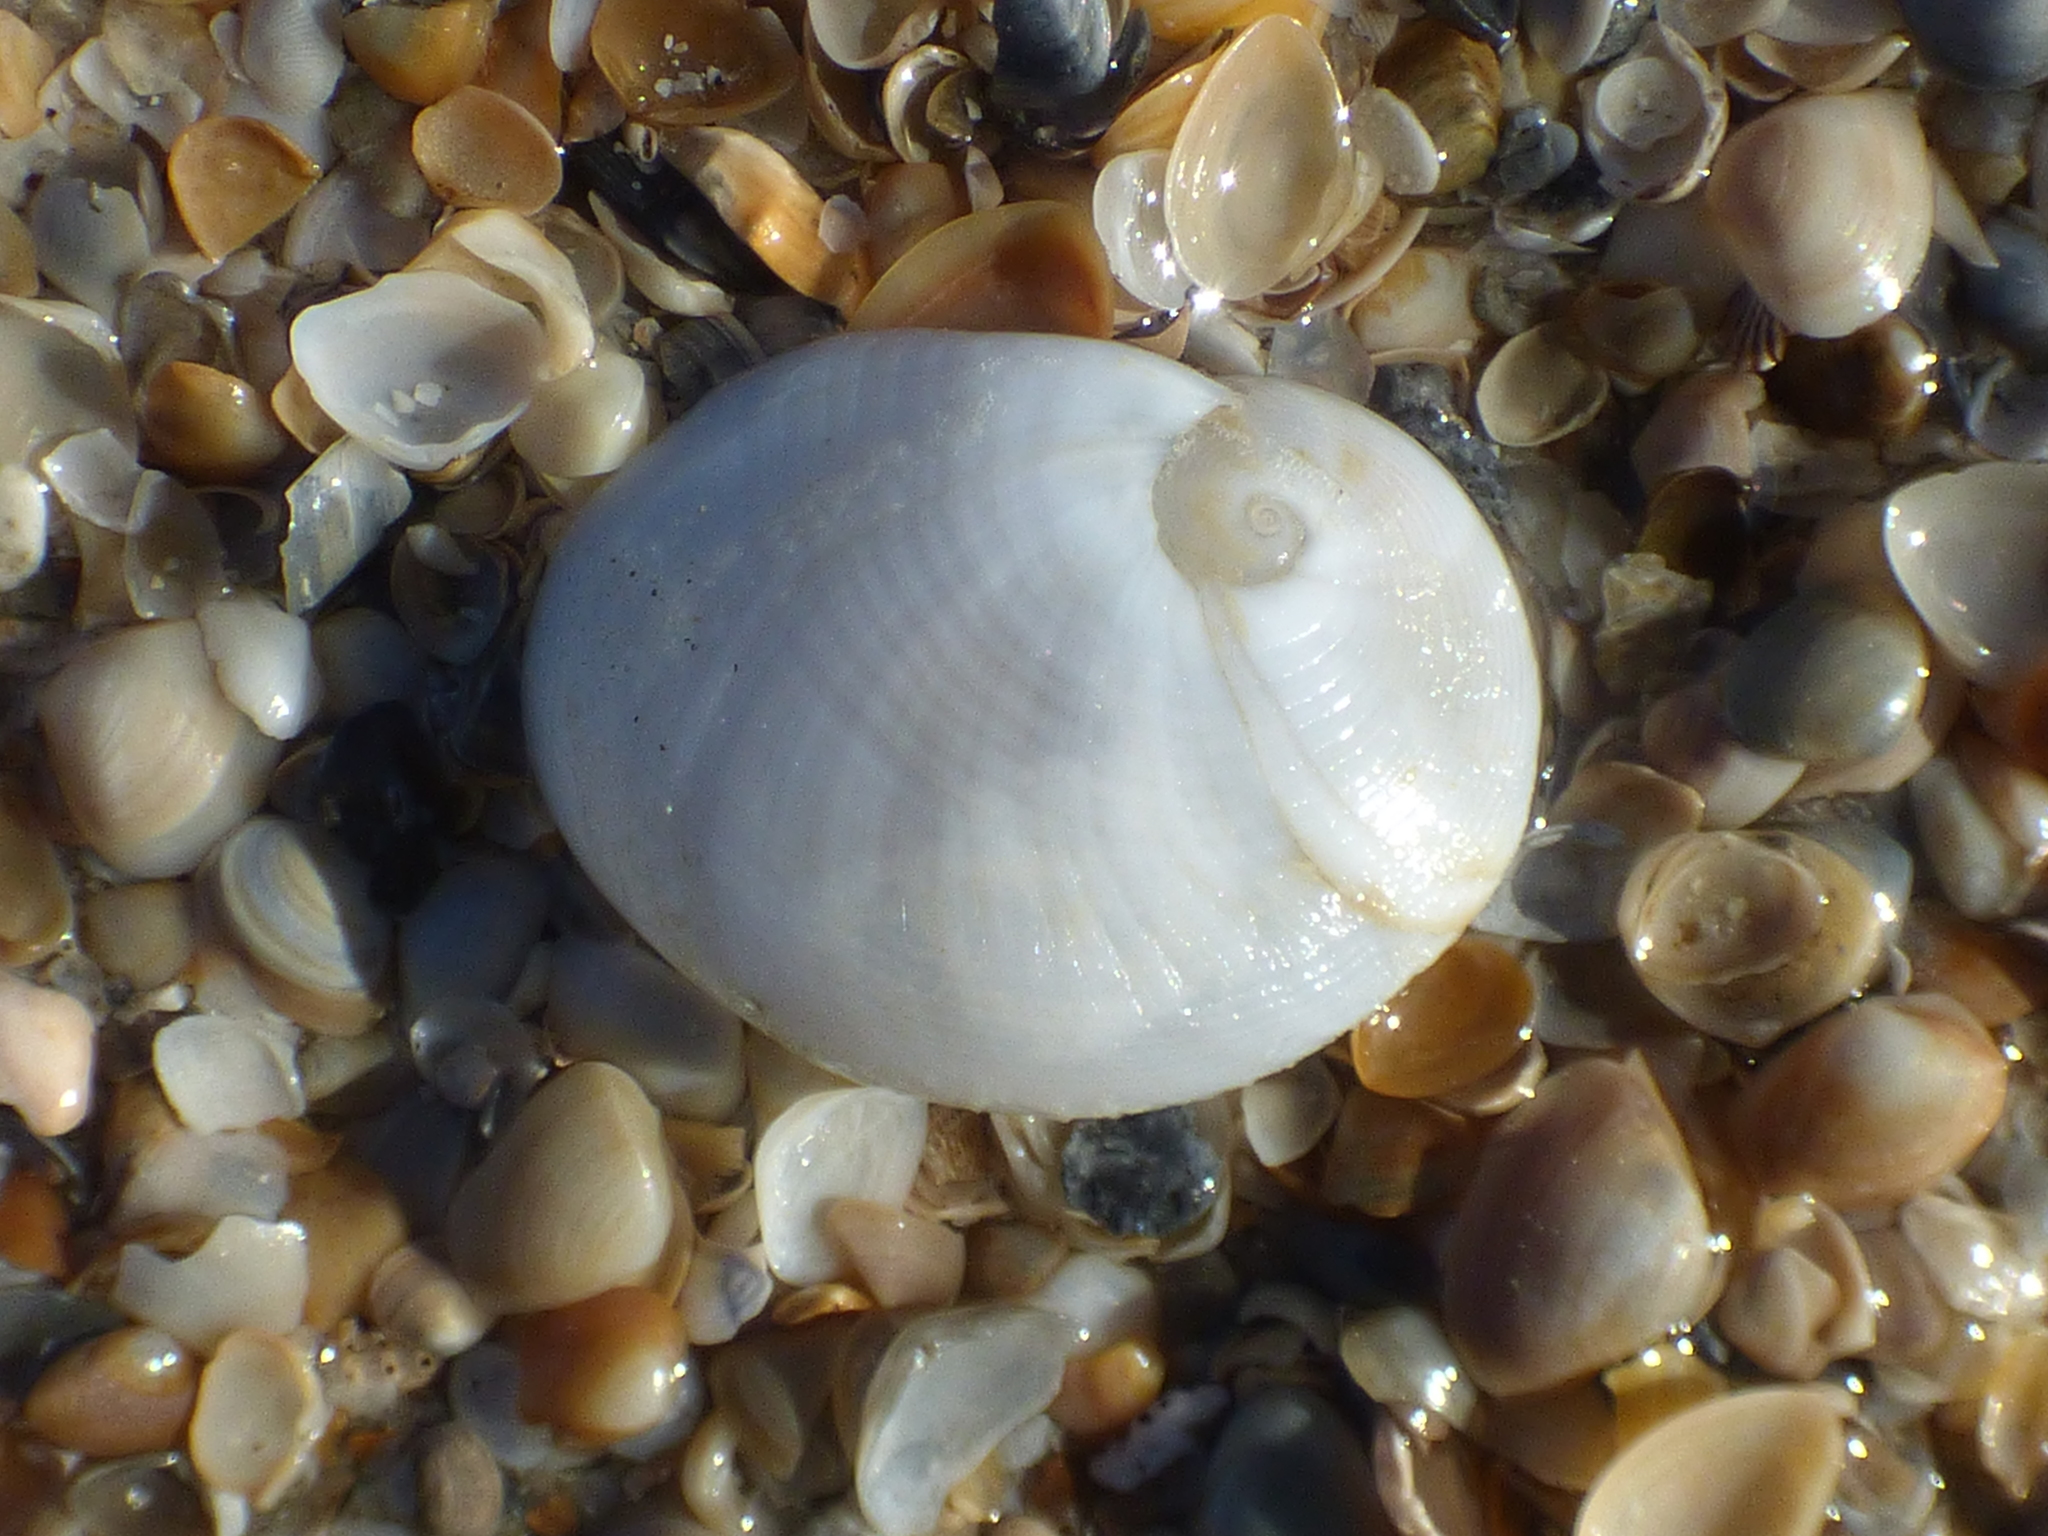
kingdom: Animalia
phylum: Mollusca
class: Gastropoda
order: Littorinimorpha
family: Naticidae
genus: Sinum
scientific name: Sinum perspectivum
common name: White baby ear
